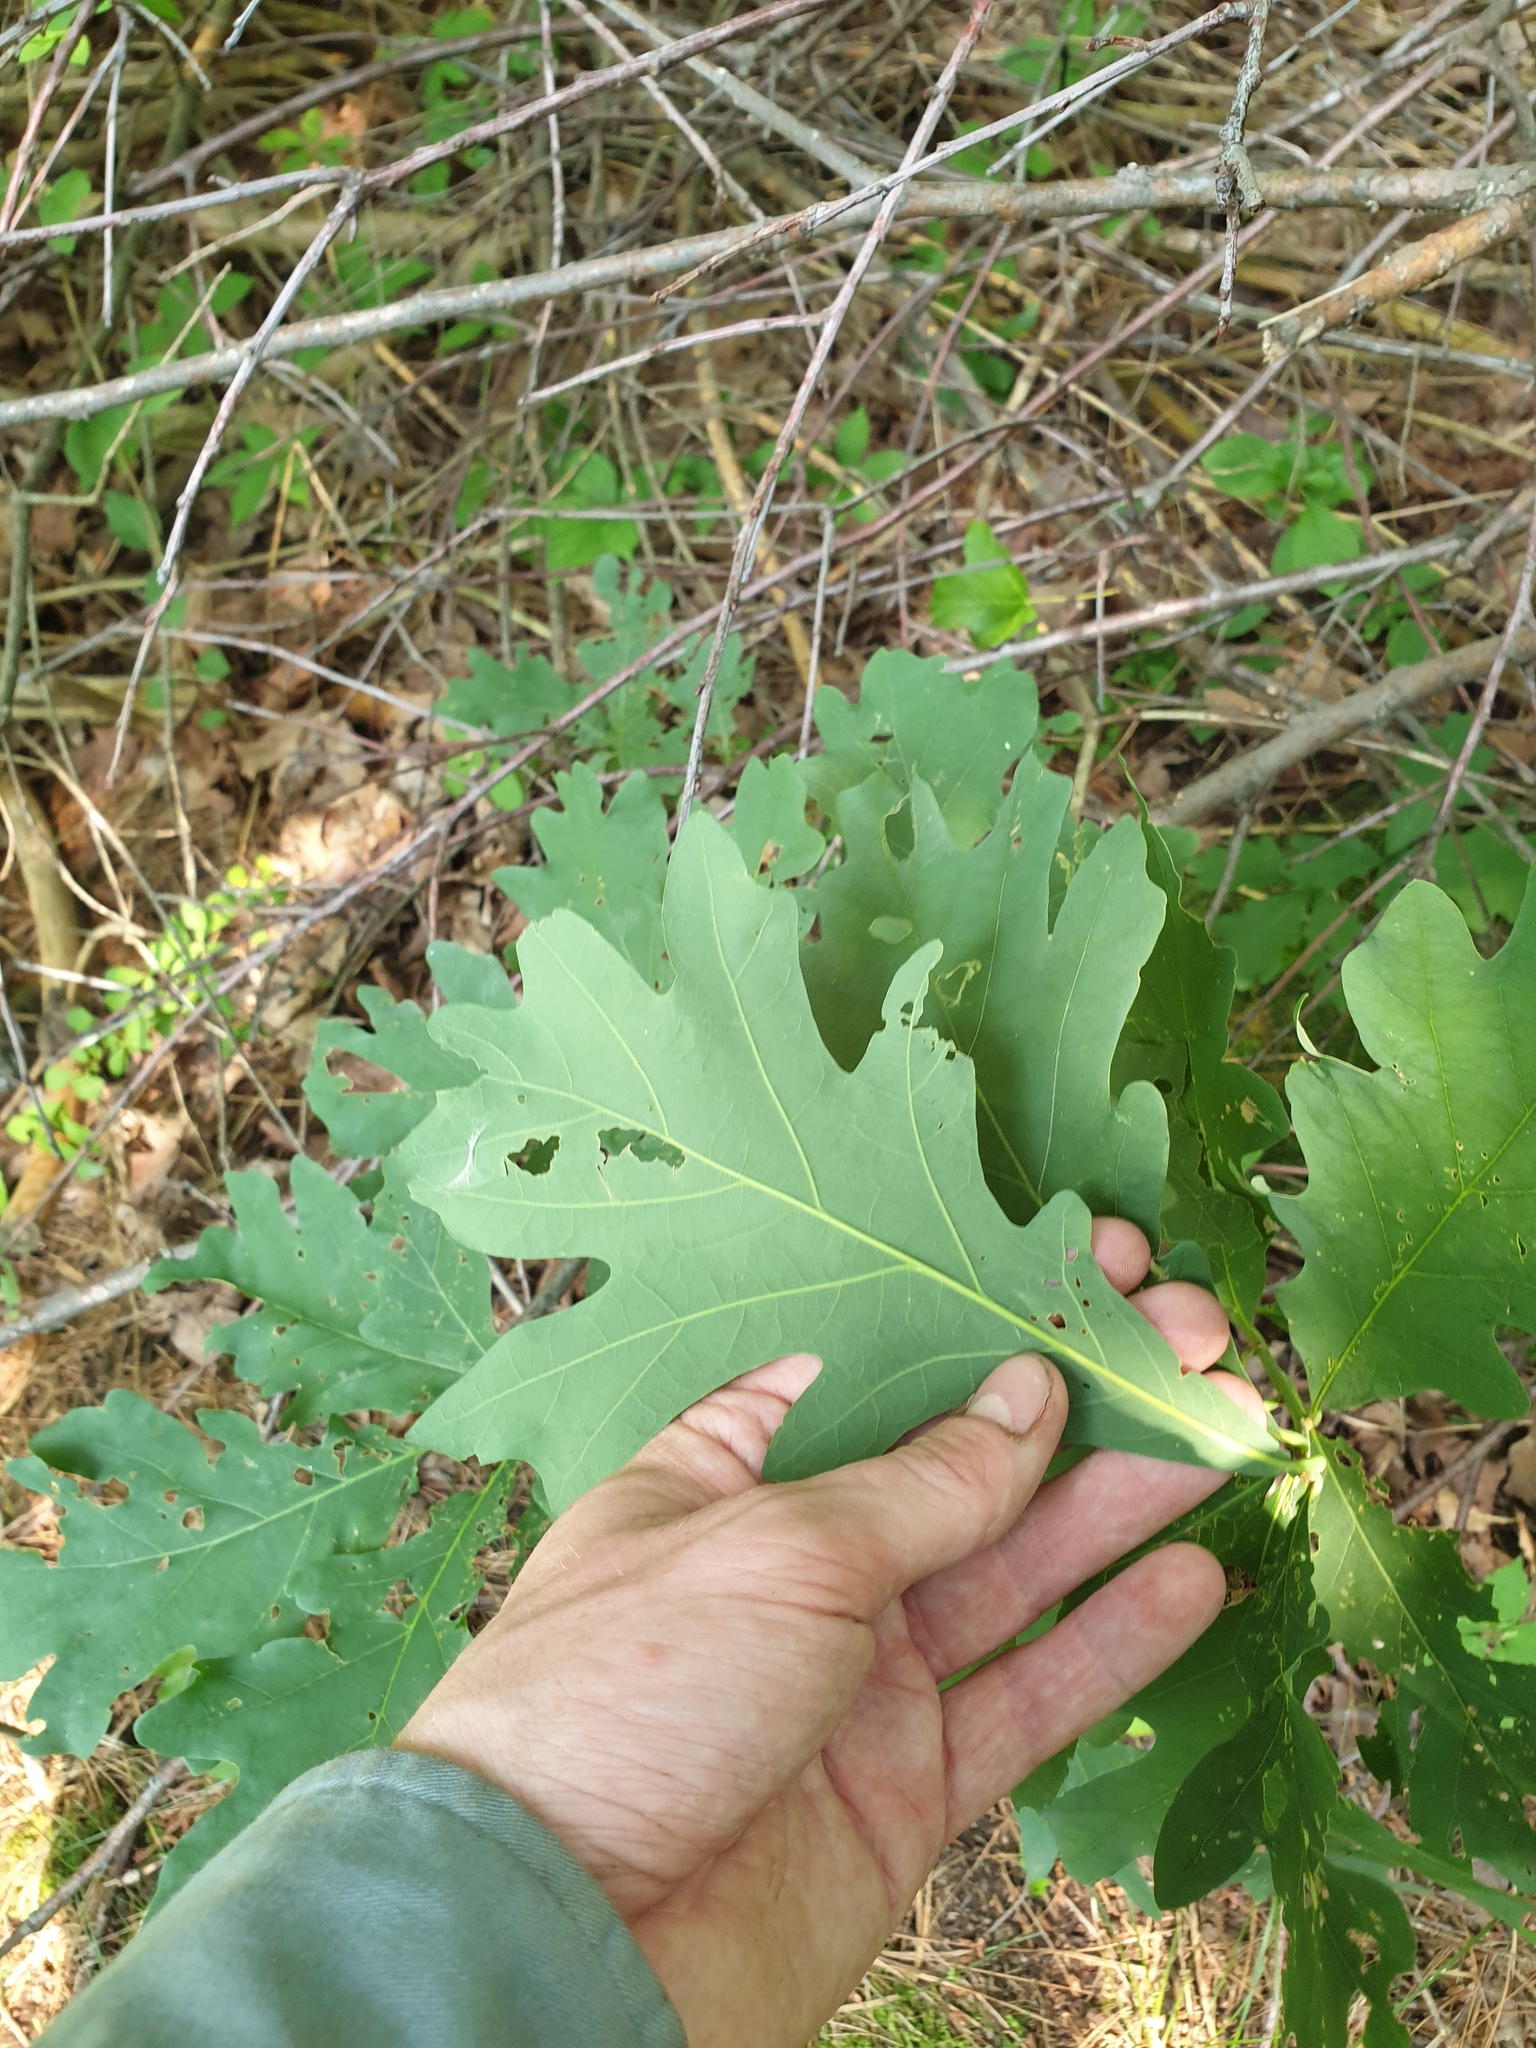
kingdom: Plantae
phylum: Tracheophyta
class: Magnoliopsida
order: Fagales
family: Fagaceae
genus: Quercus
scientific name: Quercus alba
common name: White oak
